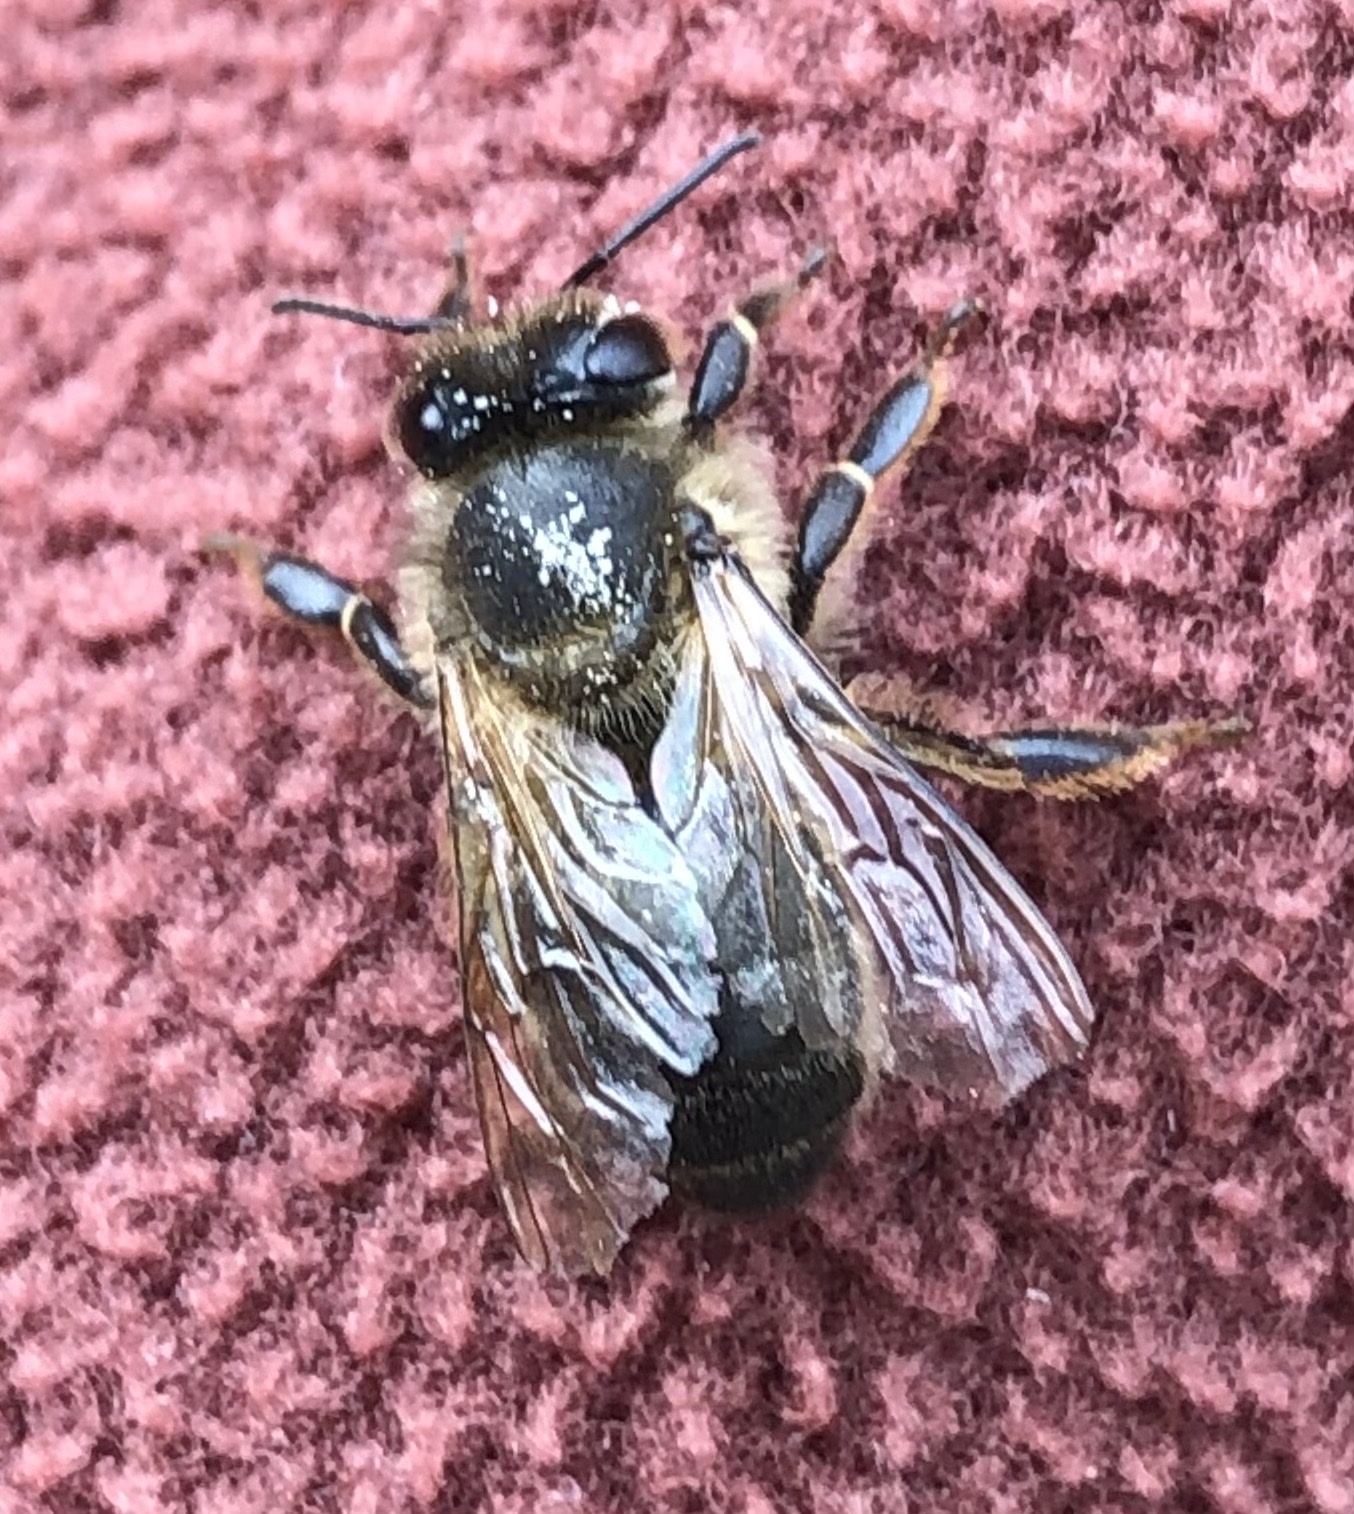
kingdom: Animalia
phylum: Arthropoda
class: Insecta
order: Hymenoptera
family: Apidae
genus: Apis
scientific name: Apis mellifera
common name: Honey bee
